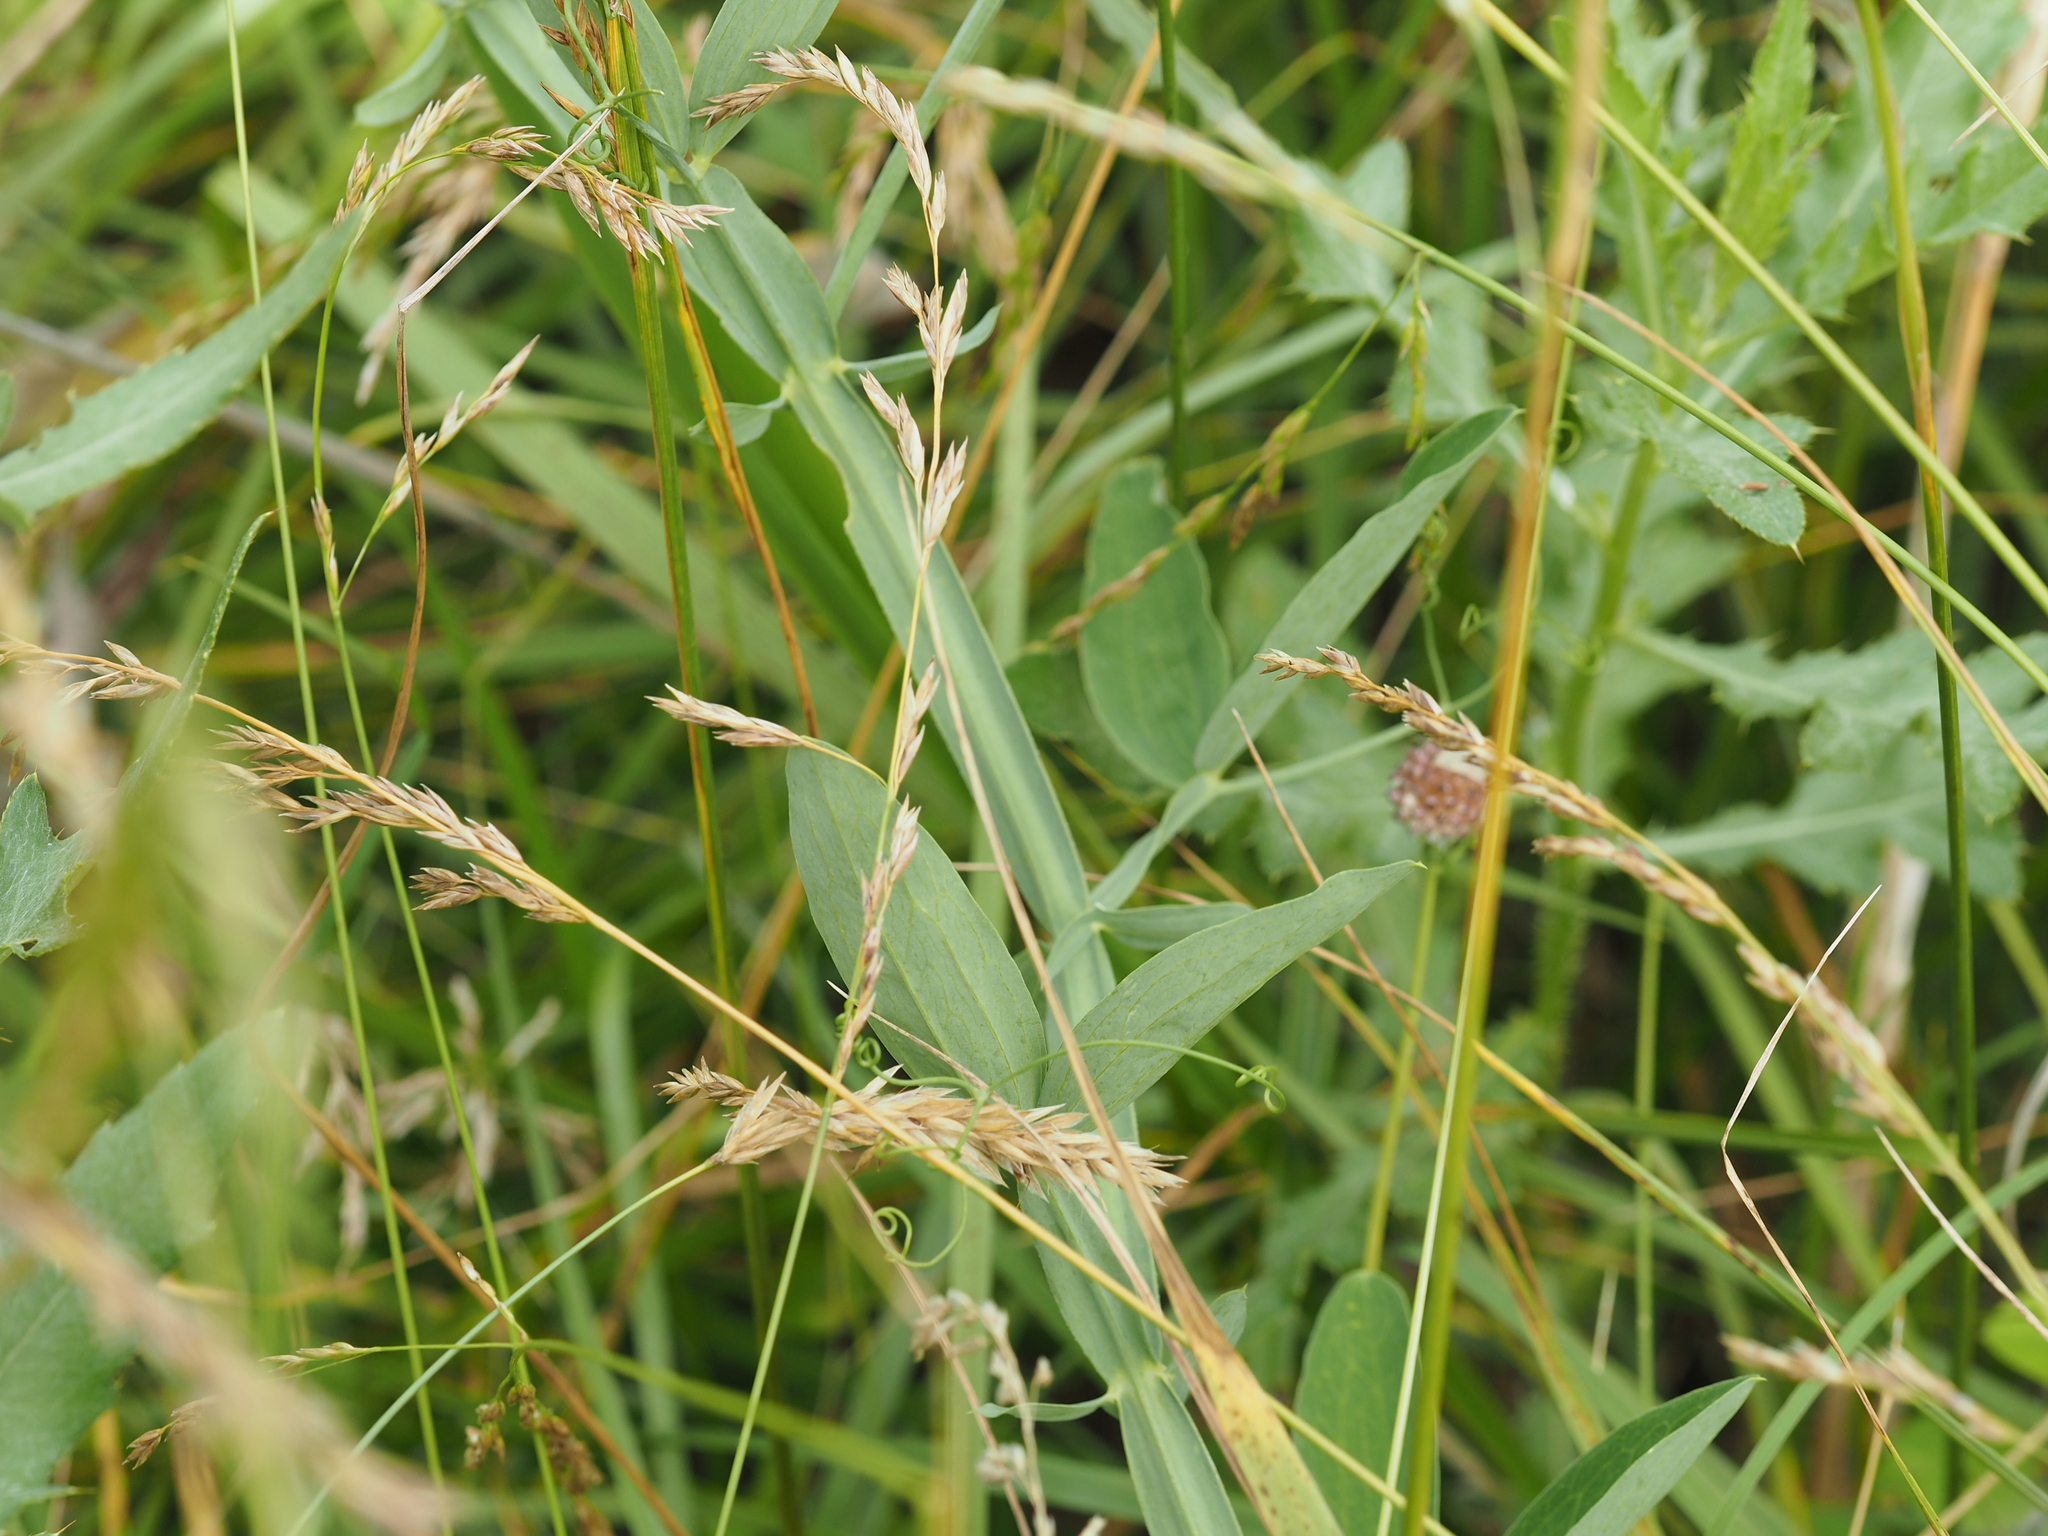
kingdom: Plantae
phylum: Tracheophyta
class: Magnoliopsida
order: Fabales
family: Fabaceae
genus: Lathyrus
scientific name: Lathyrus latifolius
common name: Perennial pea
